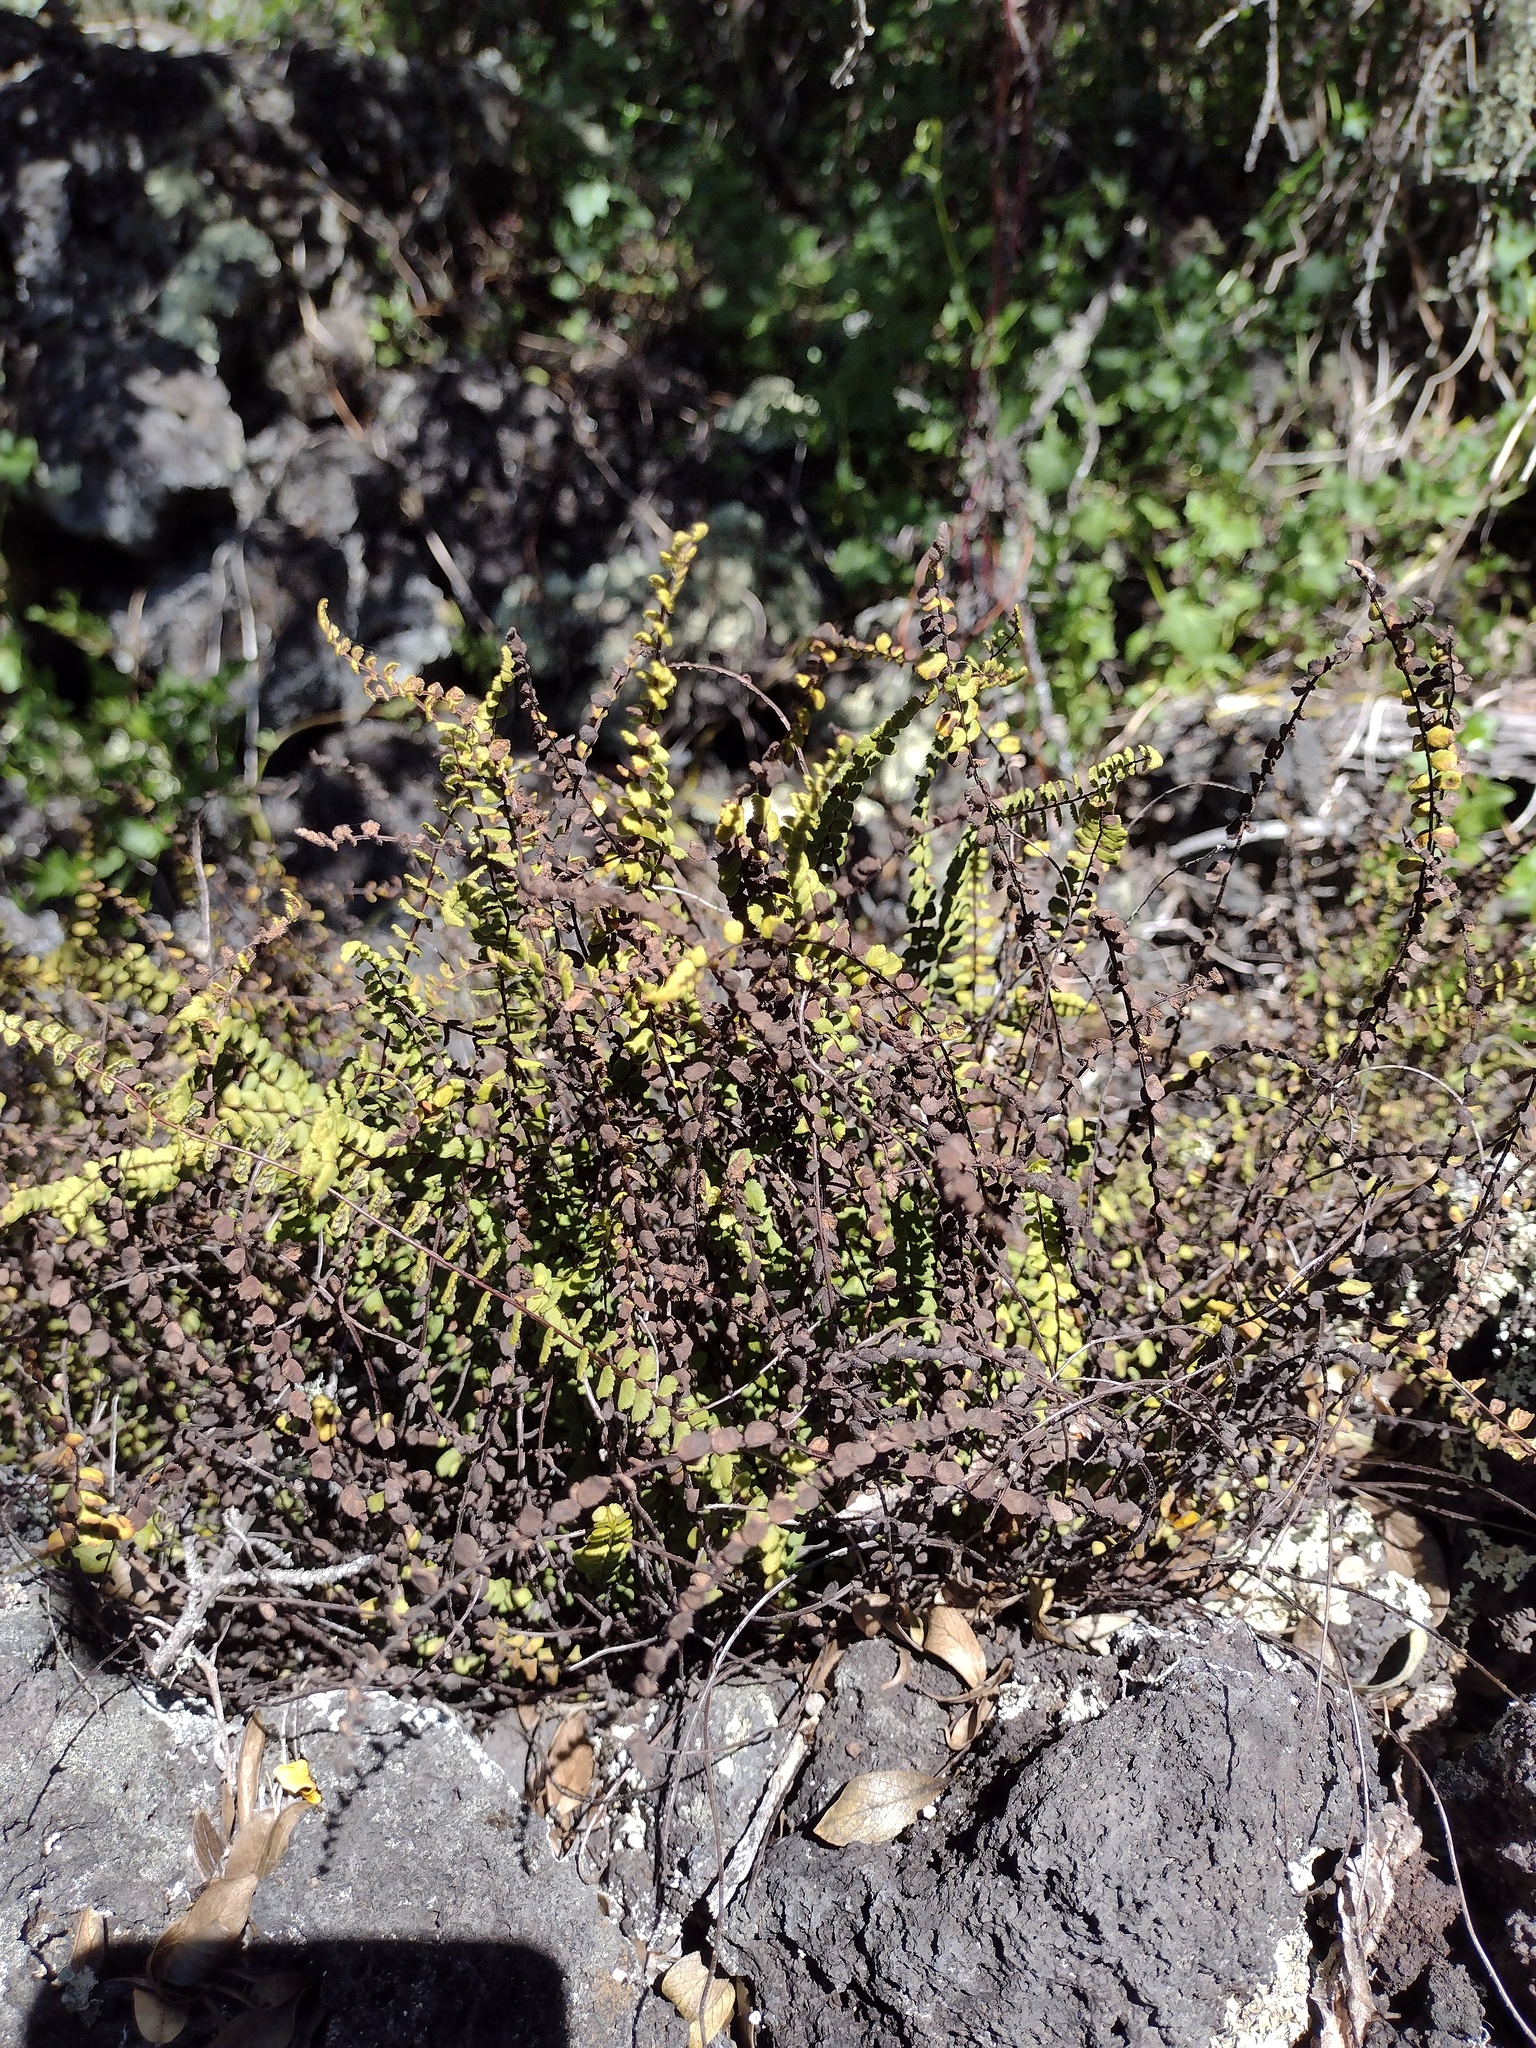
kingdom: Plantae
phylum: Tracheophyta
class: Polypodiopsida
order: Polypodiales
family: Aspleniaceae
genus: Asplenium
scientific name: Asplenium trichomanes
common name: Maidenhair spleenwort
